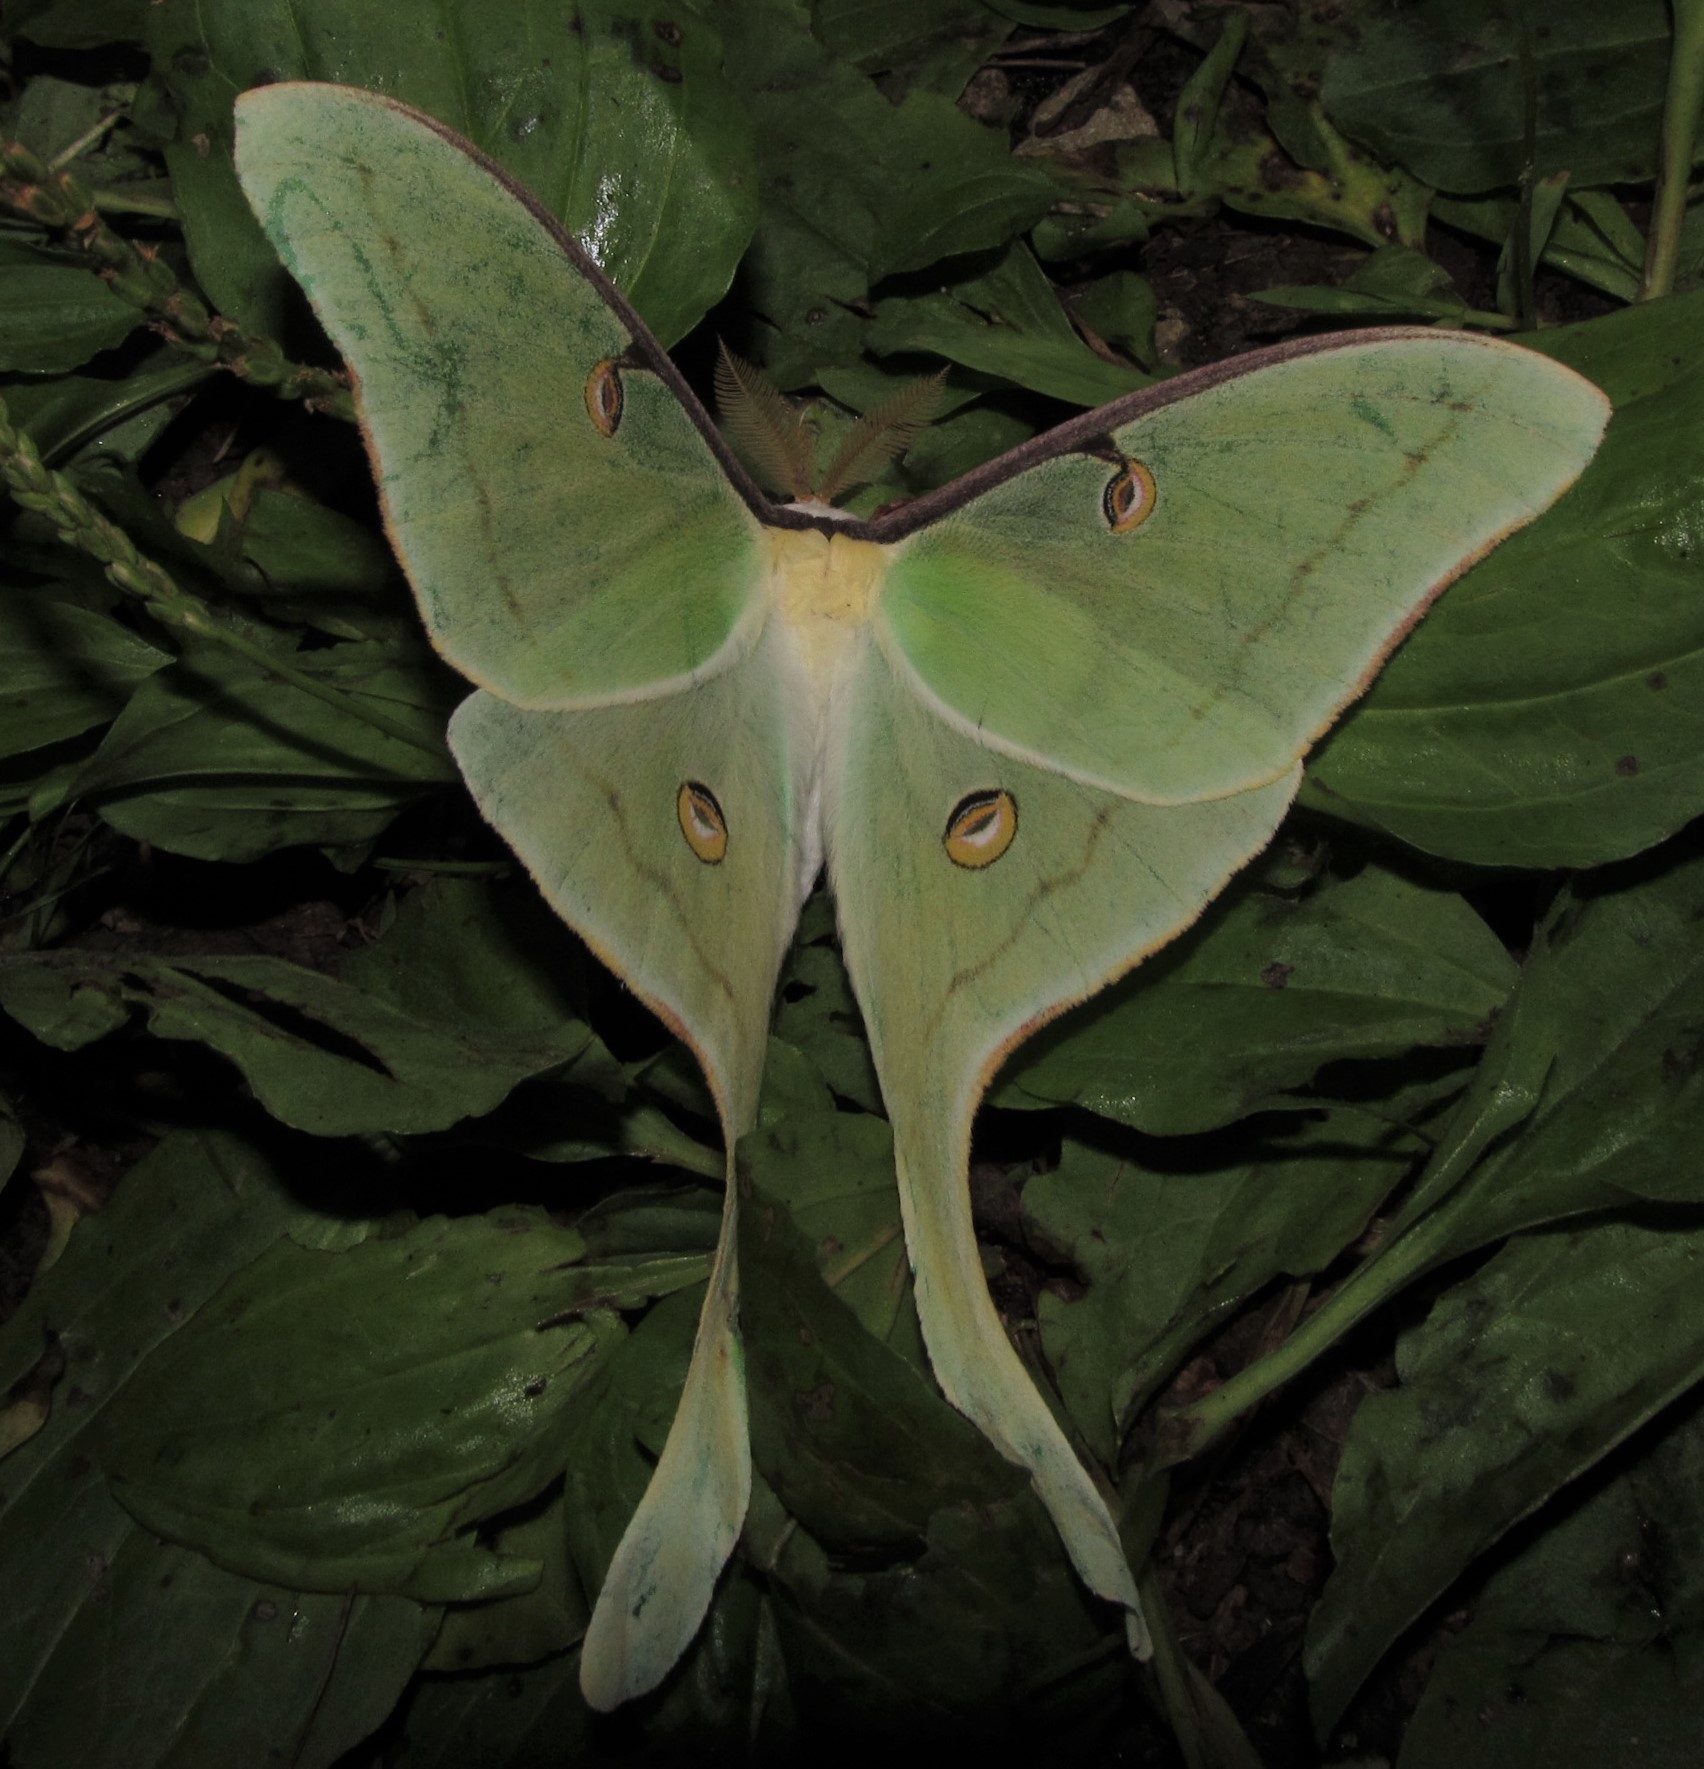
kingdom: Animalia
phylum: Arthropoda
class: Insecta
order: Lepidoptera
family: Saturniidae
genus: Actias
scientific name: Actias luna
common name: Luna moth
